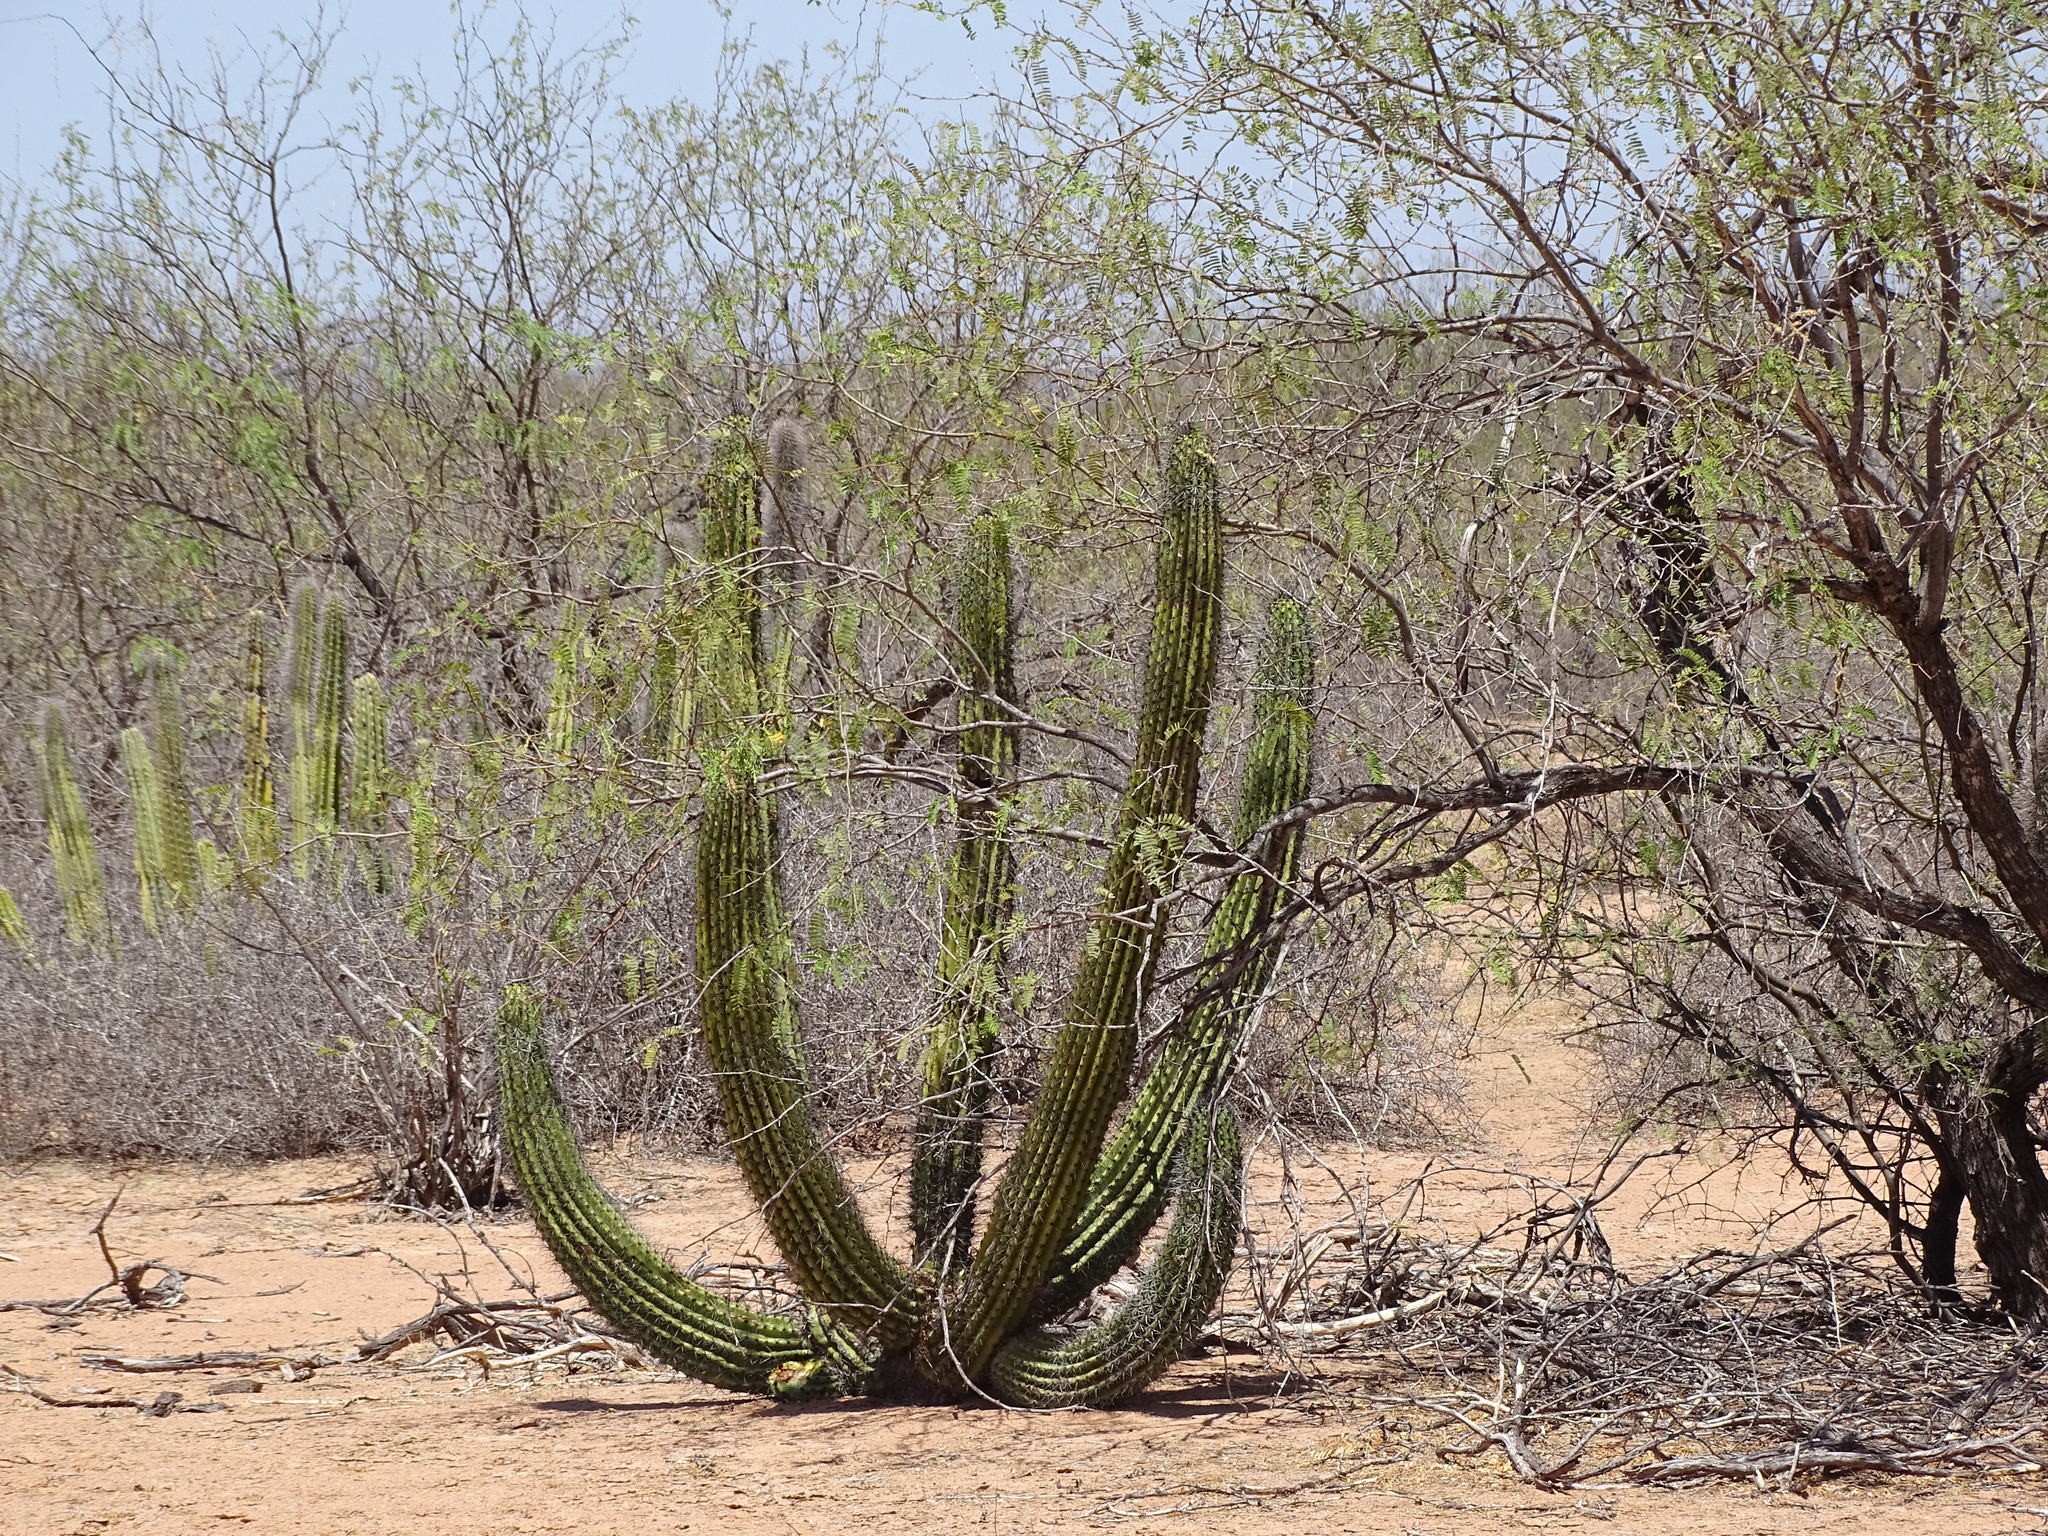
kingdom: Plantae
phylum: Tracheophyta
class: Magnoliopsida
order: Caryophyllales
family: Cactaceae
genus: Stenocereus
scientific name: Stenocereus thurberi
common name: Organ pipe cactus
